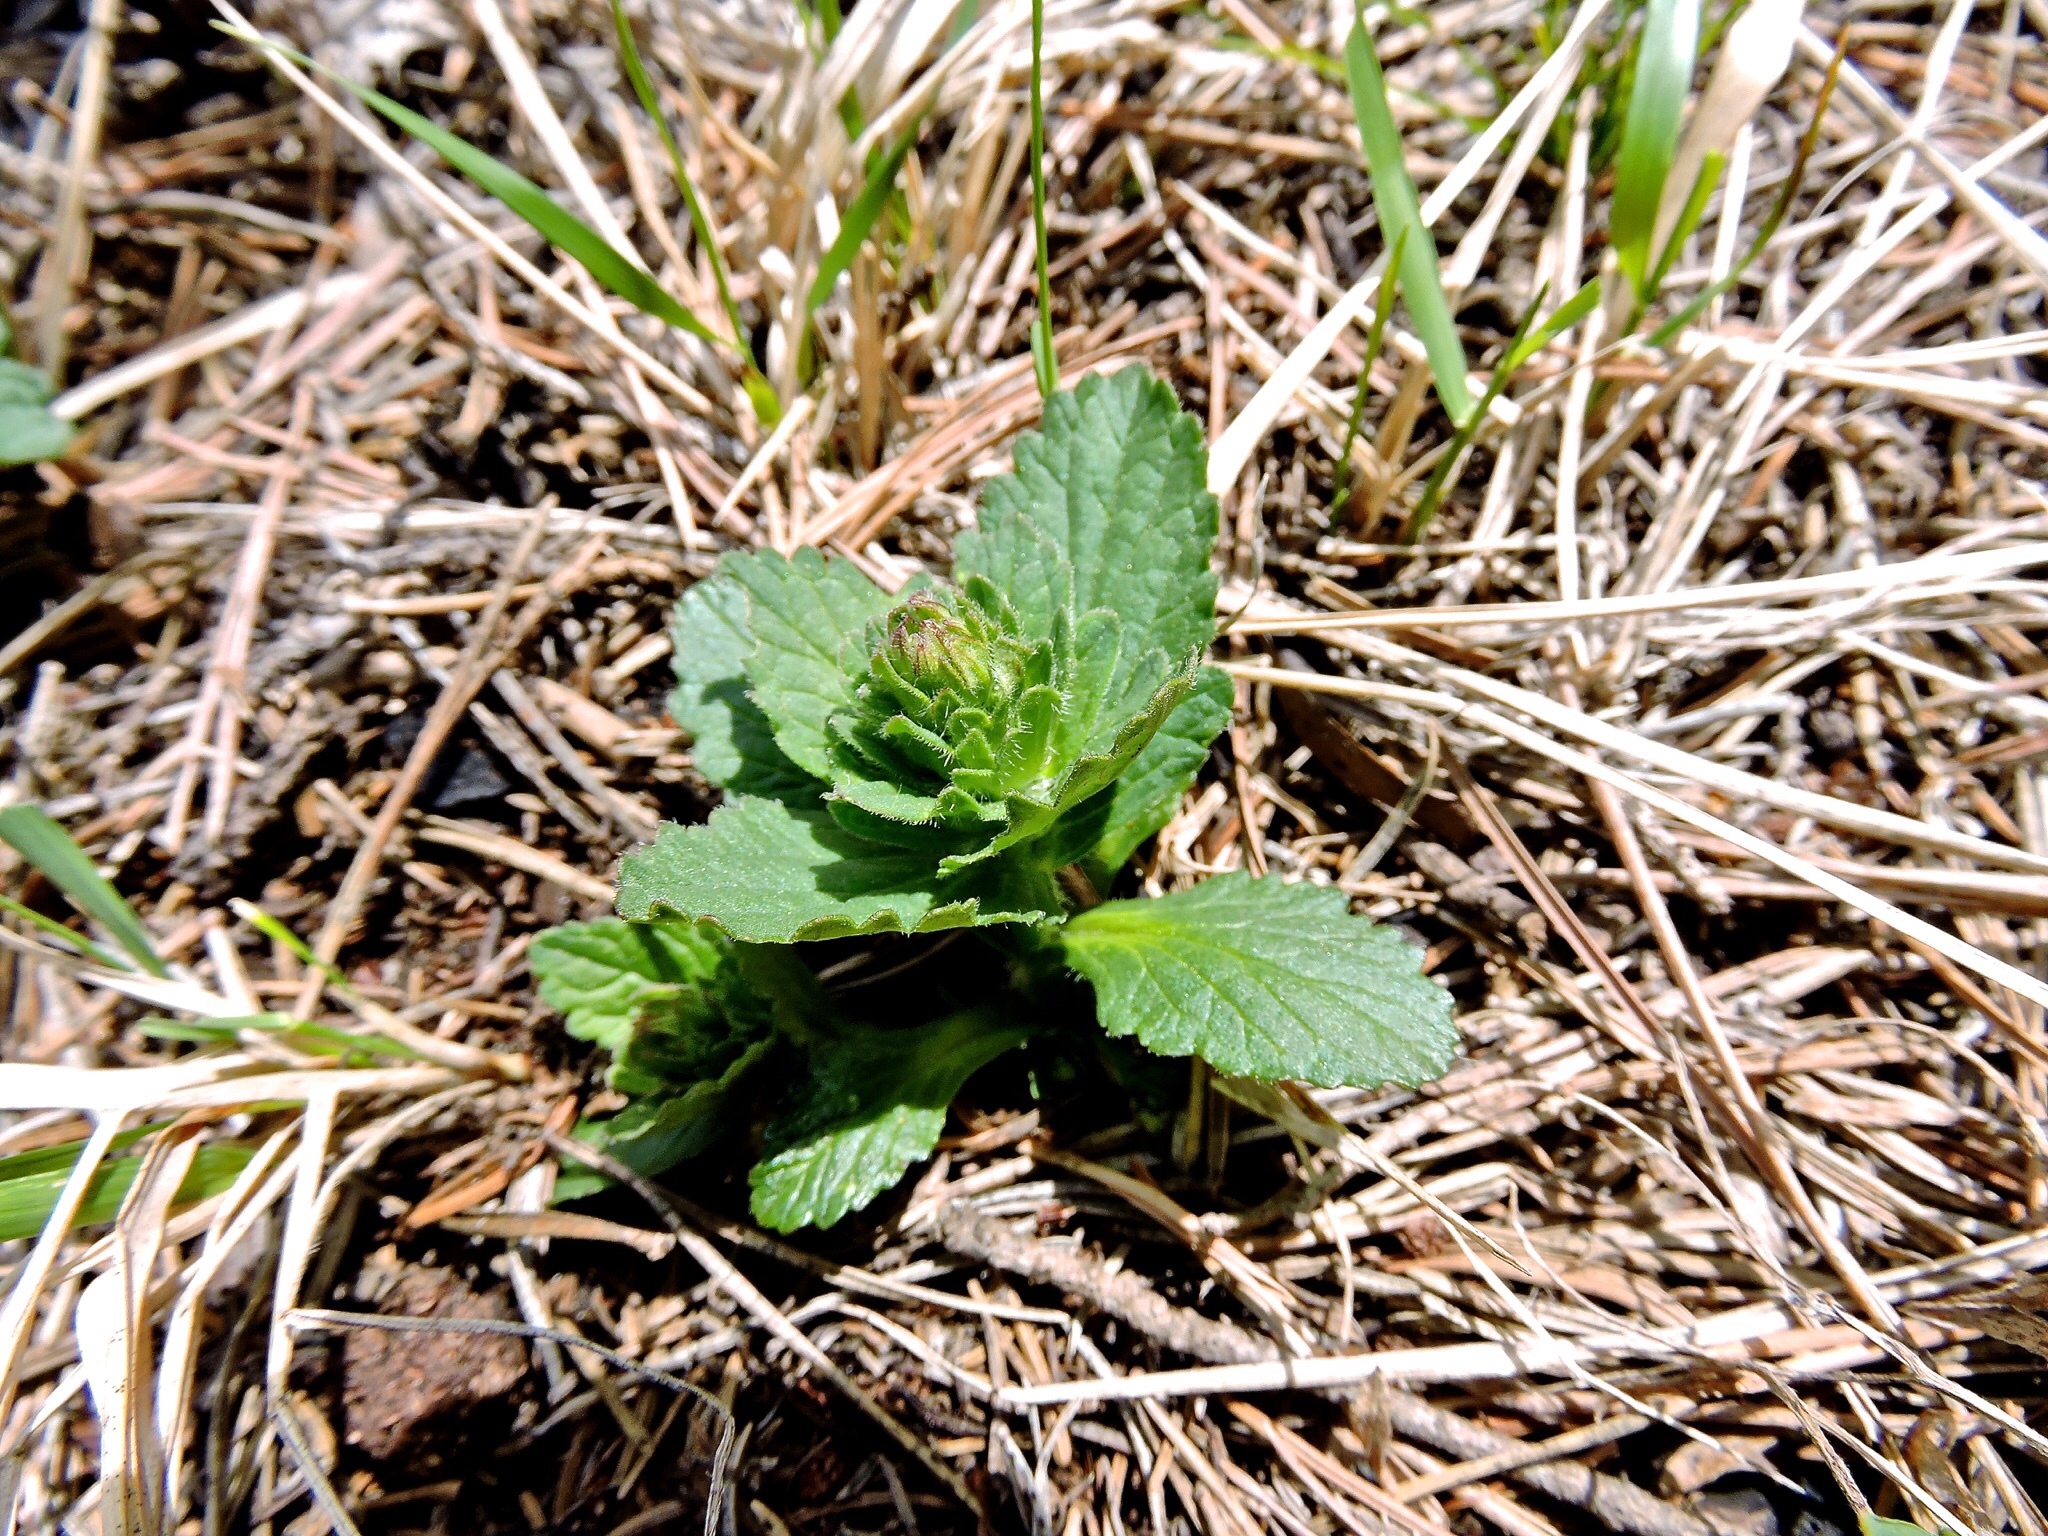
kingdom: Plantae
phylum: Tracheophyta
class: Magnoliopsida
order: Lamiales
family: Lamiaceae
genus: Ajuga
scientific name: Ajuga genevensis
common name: Blue bugle
